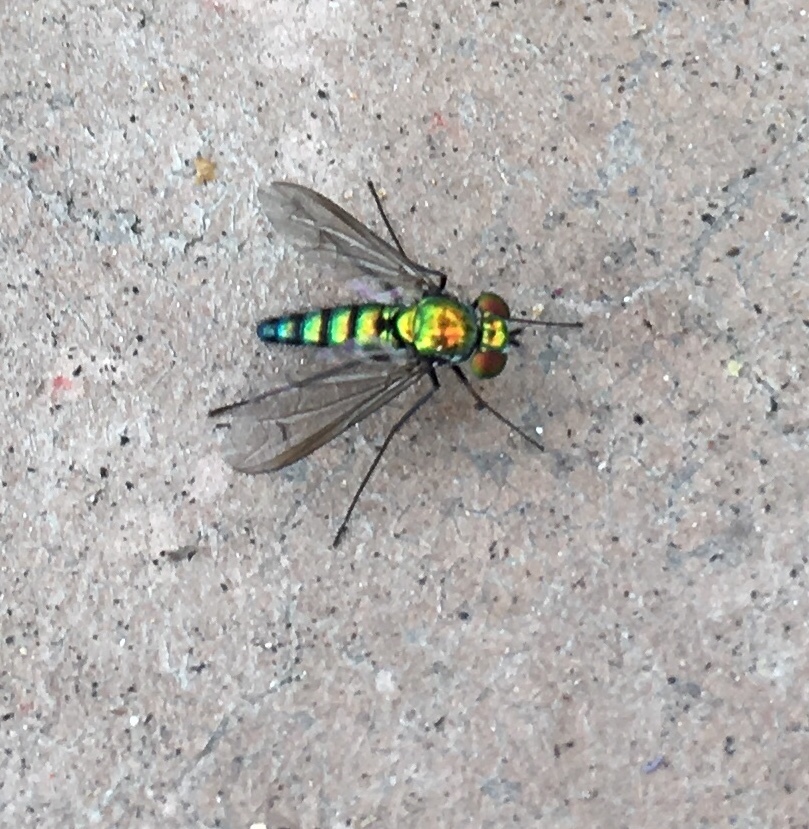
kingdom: Animalia
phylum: Arthropoda
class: Insecta
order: Diptera
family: Dolichopodidae
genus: Condylostylus
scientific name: Condylostylus longicornis
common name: Long-legged fly
